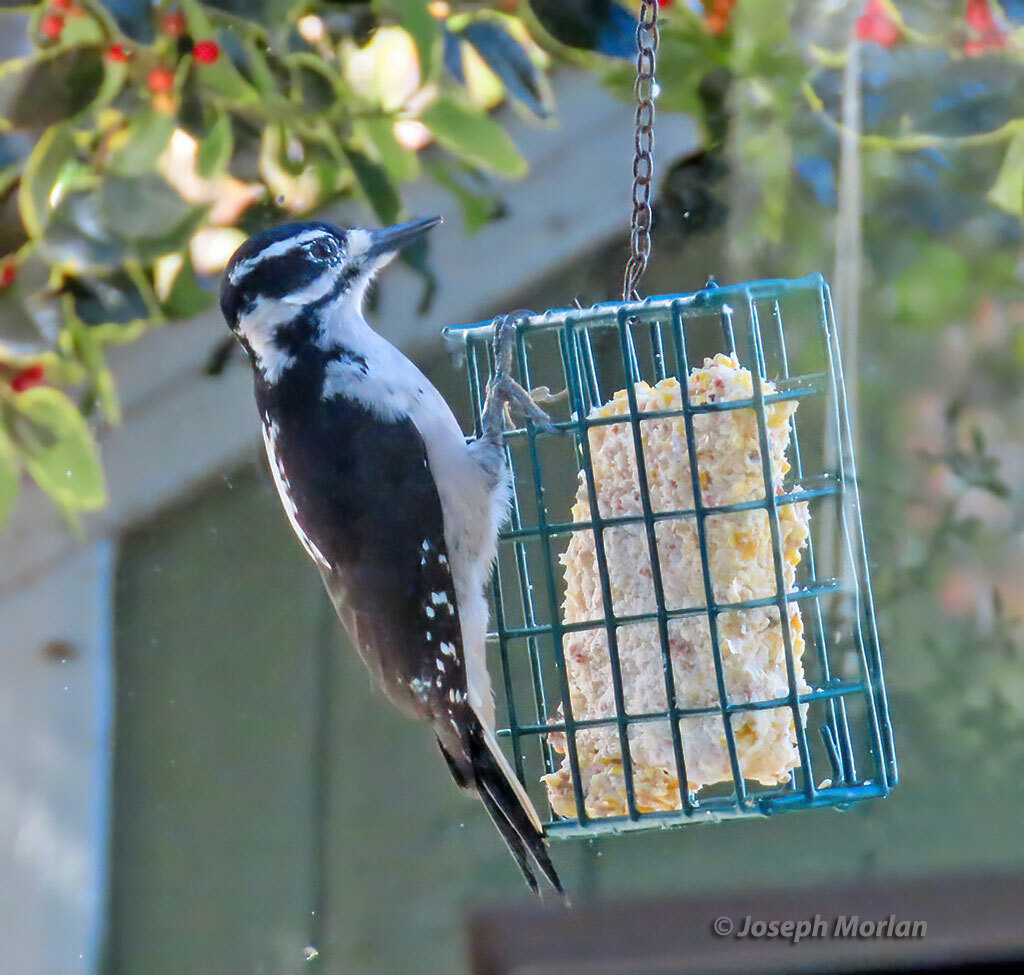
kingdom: Animalia
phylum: Chordata
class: Aves
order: Piciformes
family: Picidae
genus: Leuconotopicus
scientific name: Leuconotopicus villosus
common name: Hairy woodpecker
